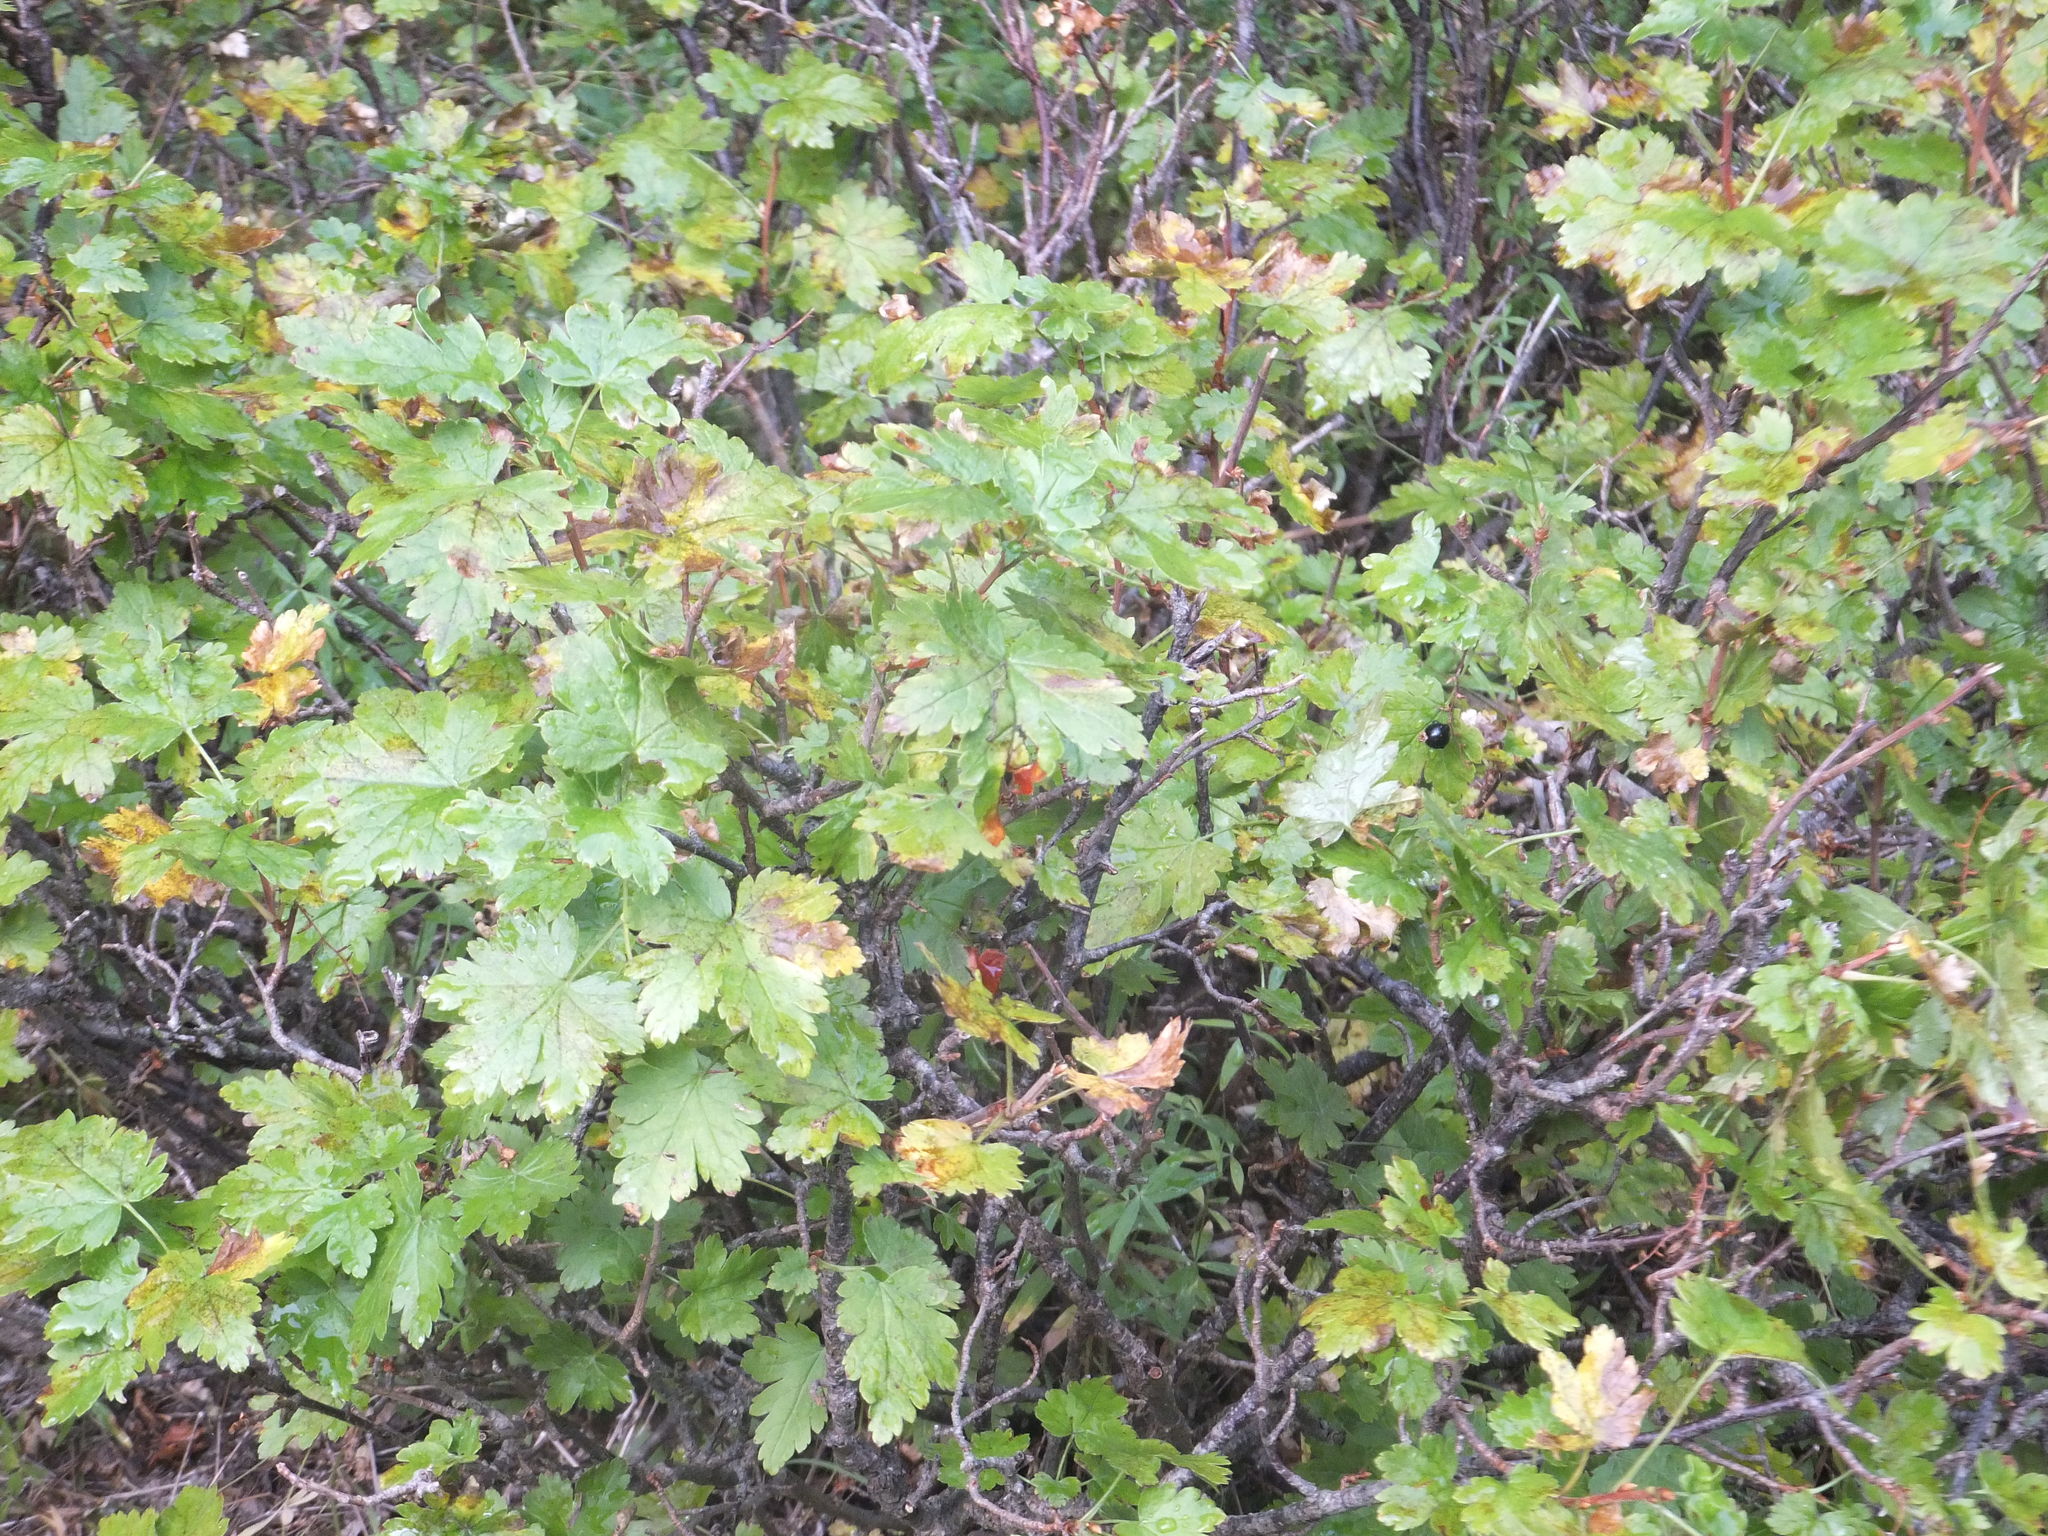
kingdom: Plantae
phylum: Tracheophyta
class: Magnoliopsida
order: Saxifragales
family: Grossulariaceae
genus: Ribes
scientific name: Ribes lacustre
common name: Black gooseberry
